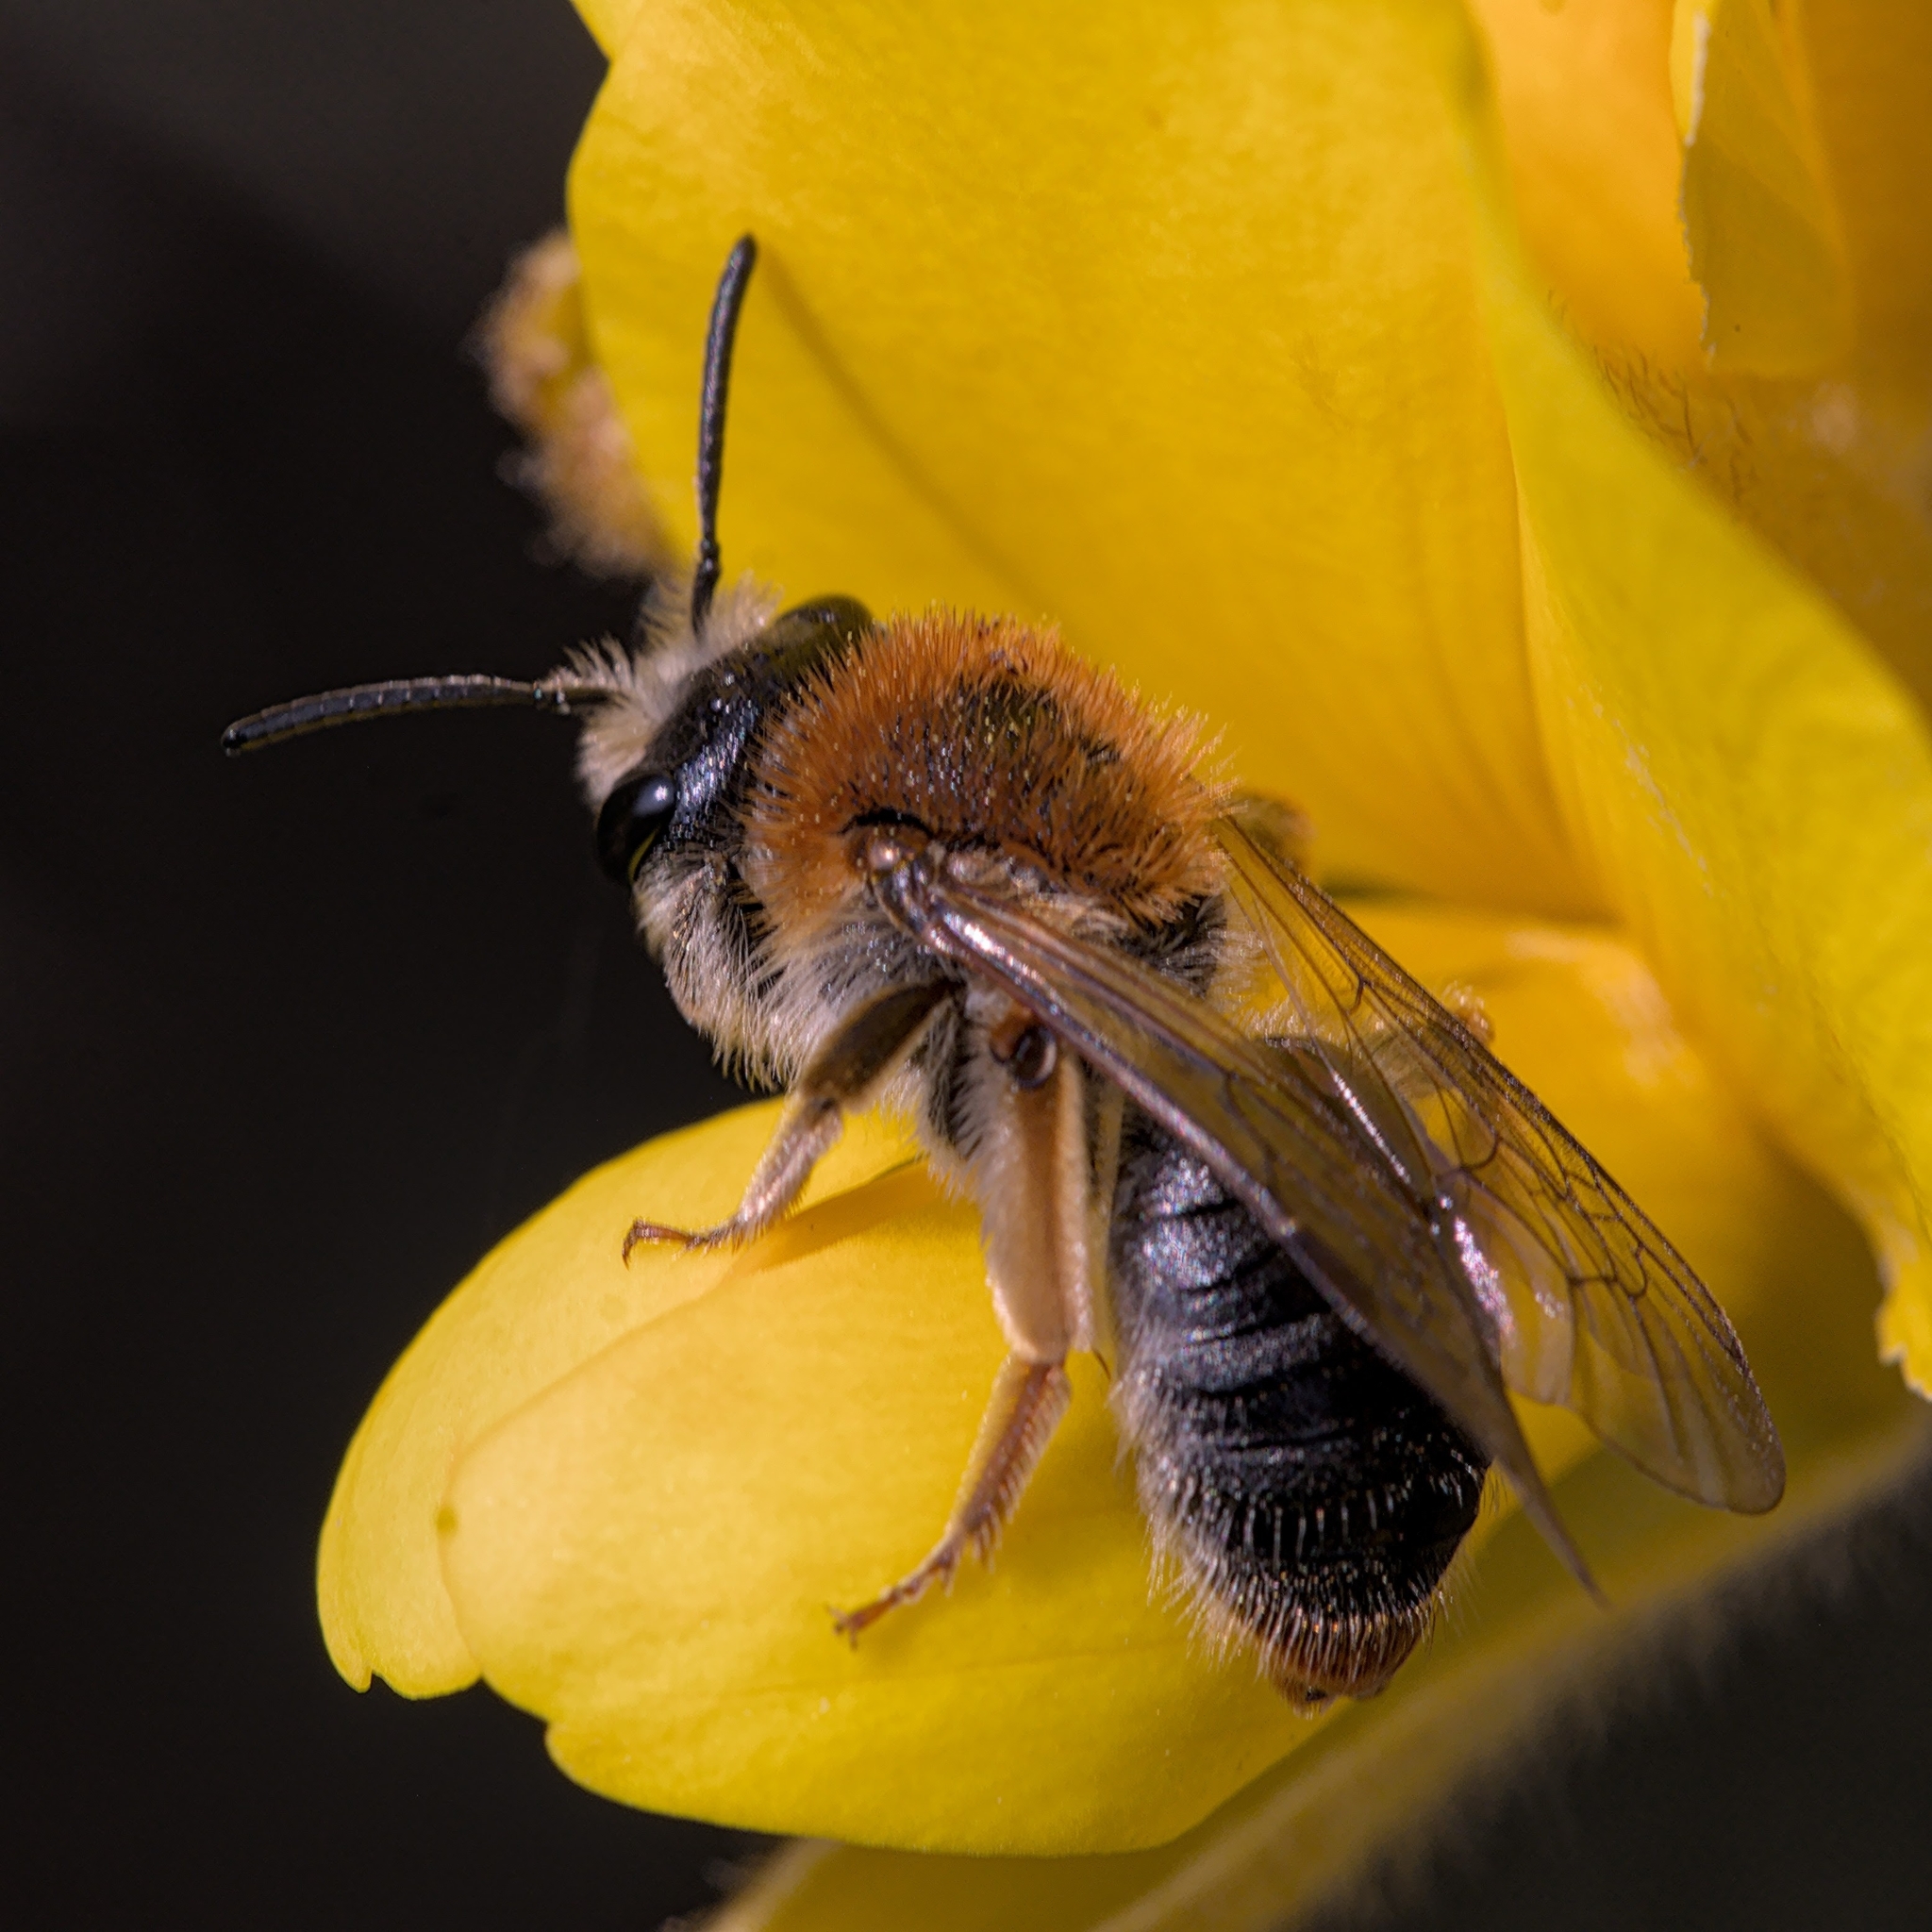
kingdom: Animalia
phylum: Arthropoda
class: Insecta
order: Hymenoptera
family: Andrenidae
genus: Andrena
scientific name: Andrena haemorrhoa
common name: Early mining bee
